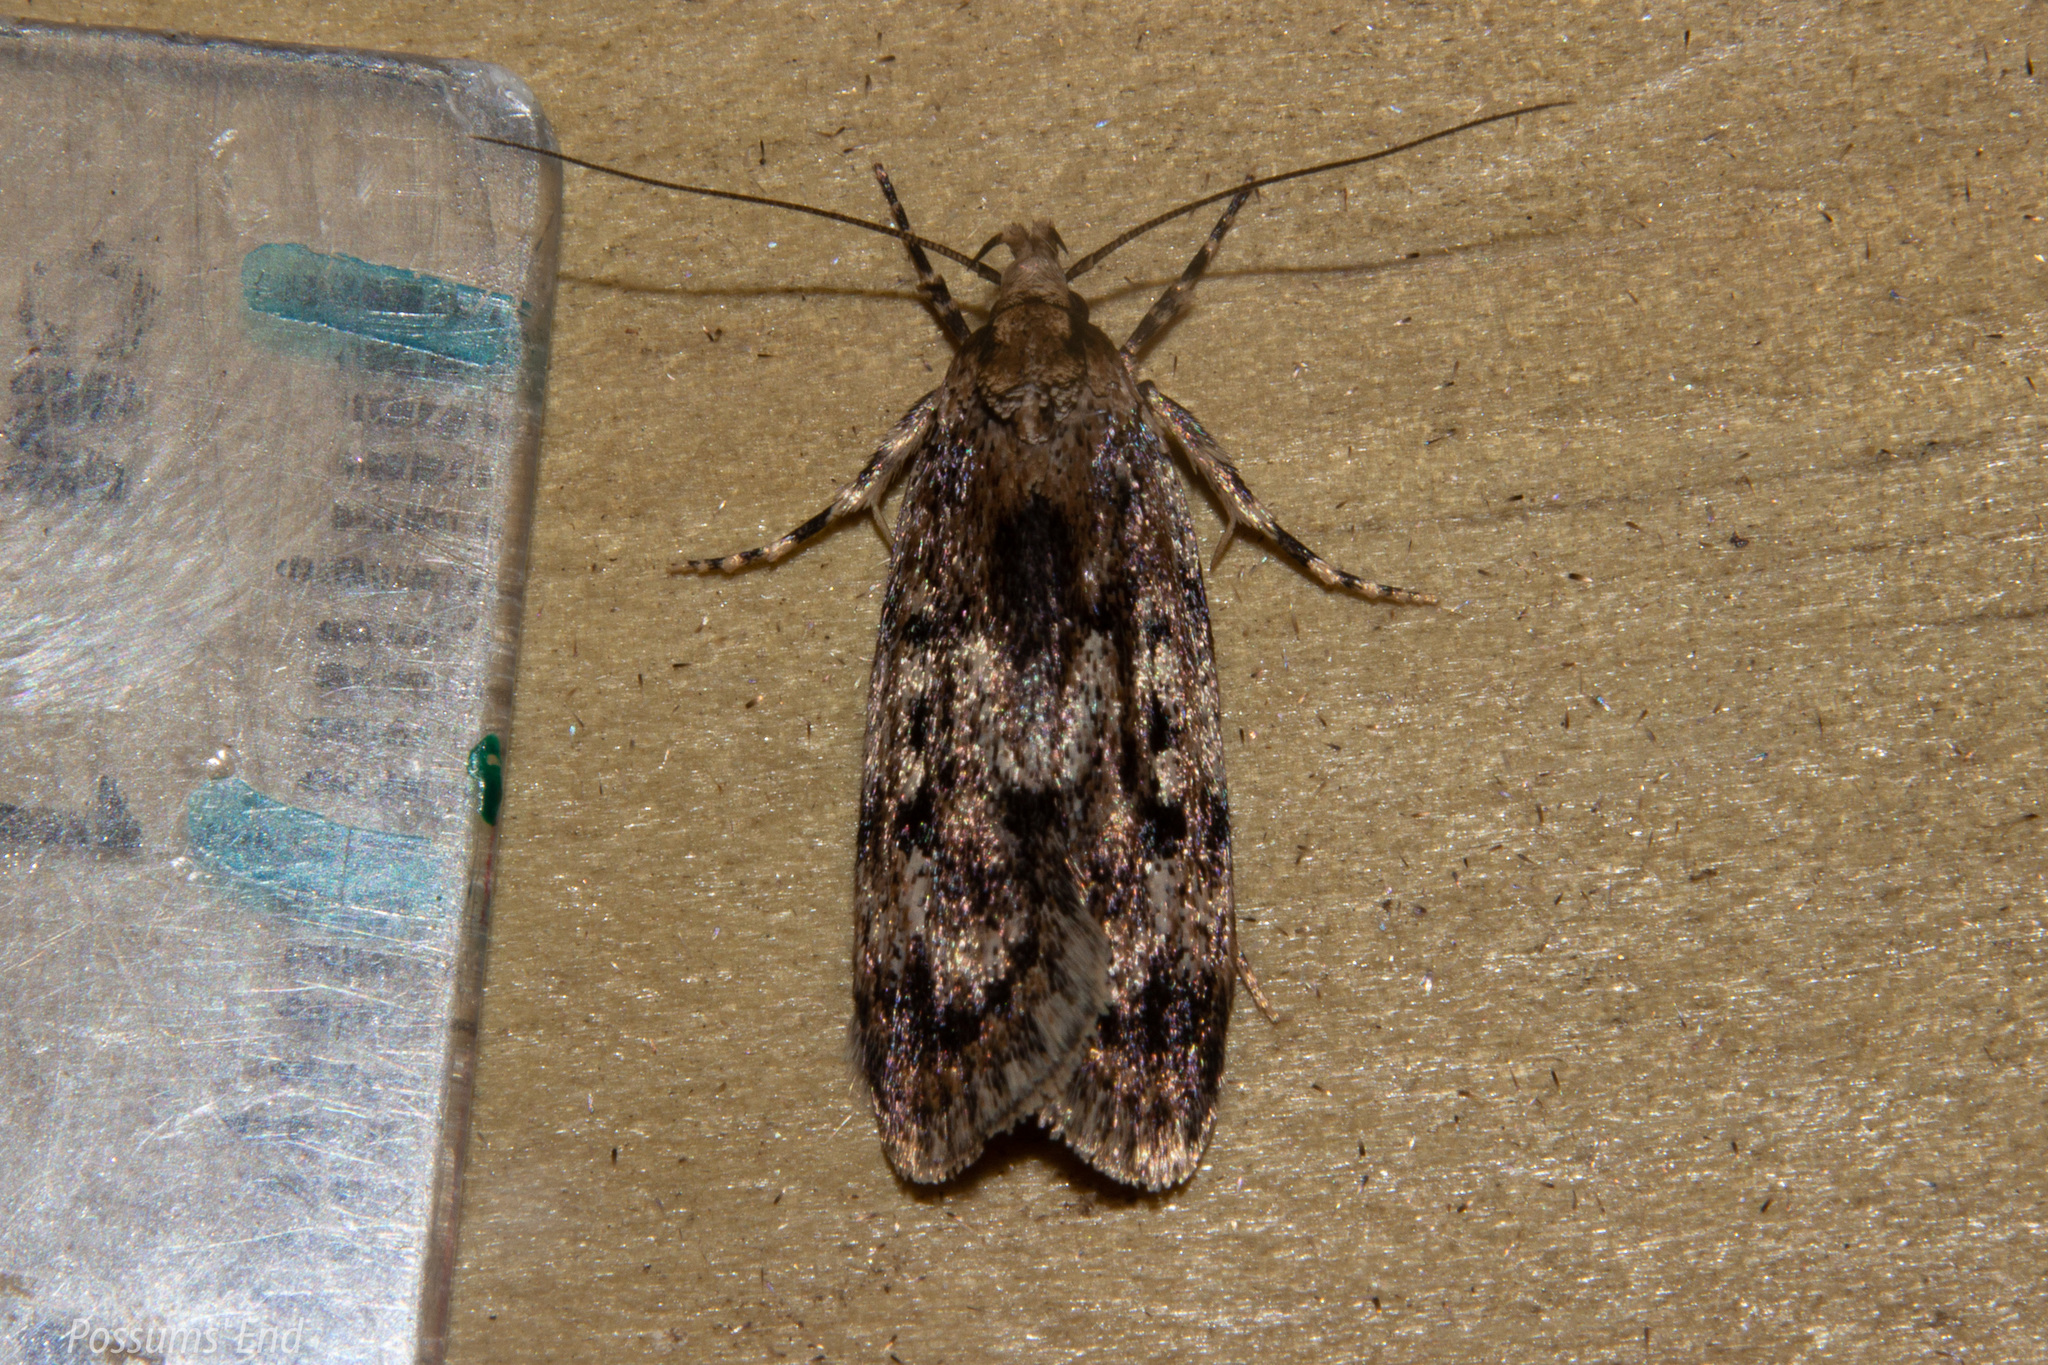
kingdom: Animalia
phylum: Arthropoda
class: Insecta
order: Lepidoptera
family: Oecophoridae
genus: Barea
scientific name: Barea exarcha
